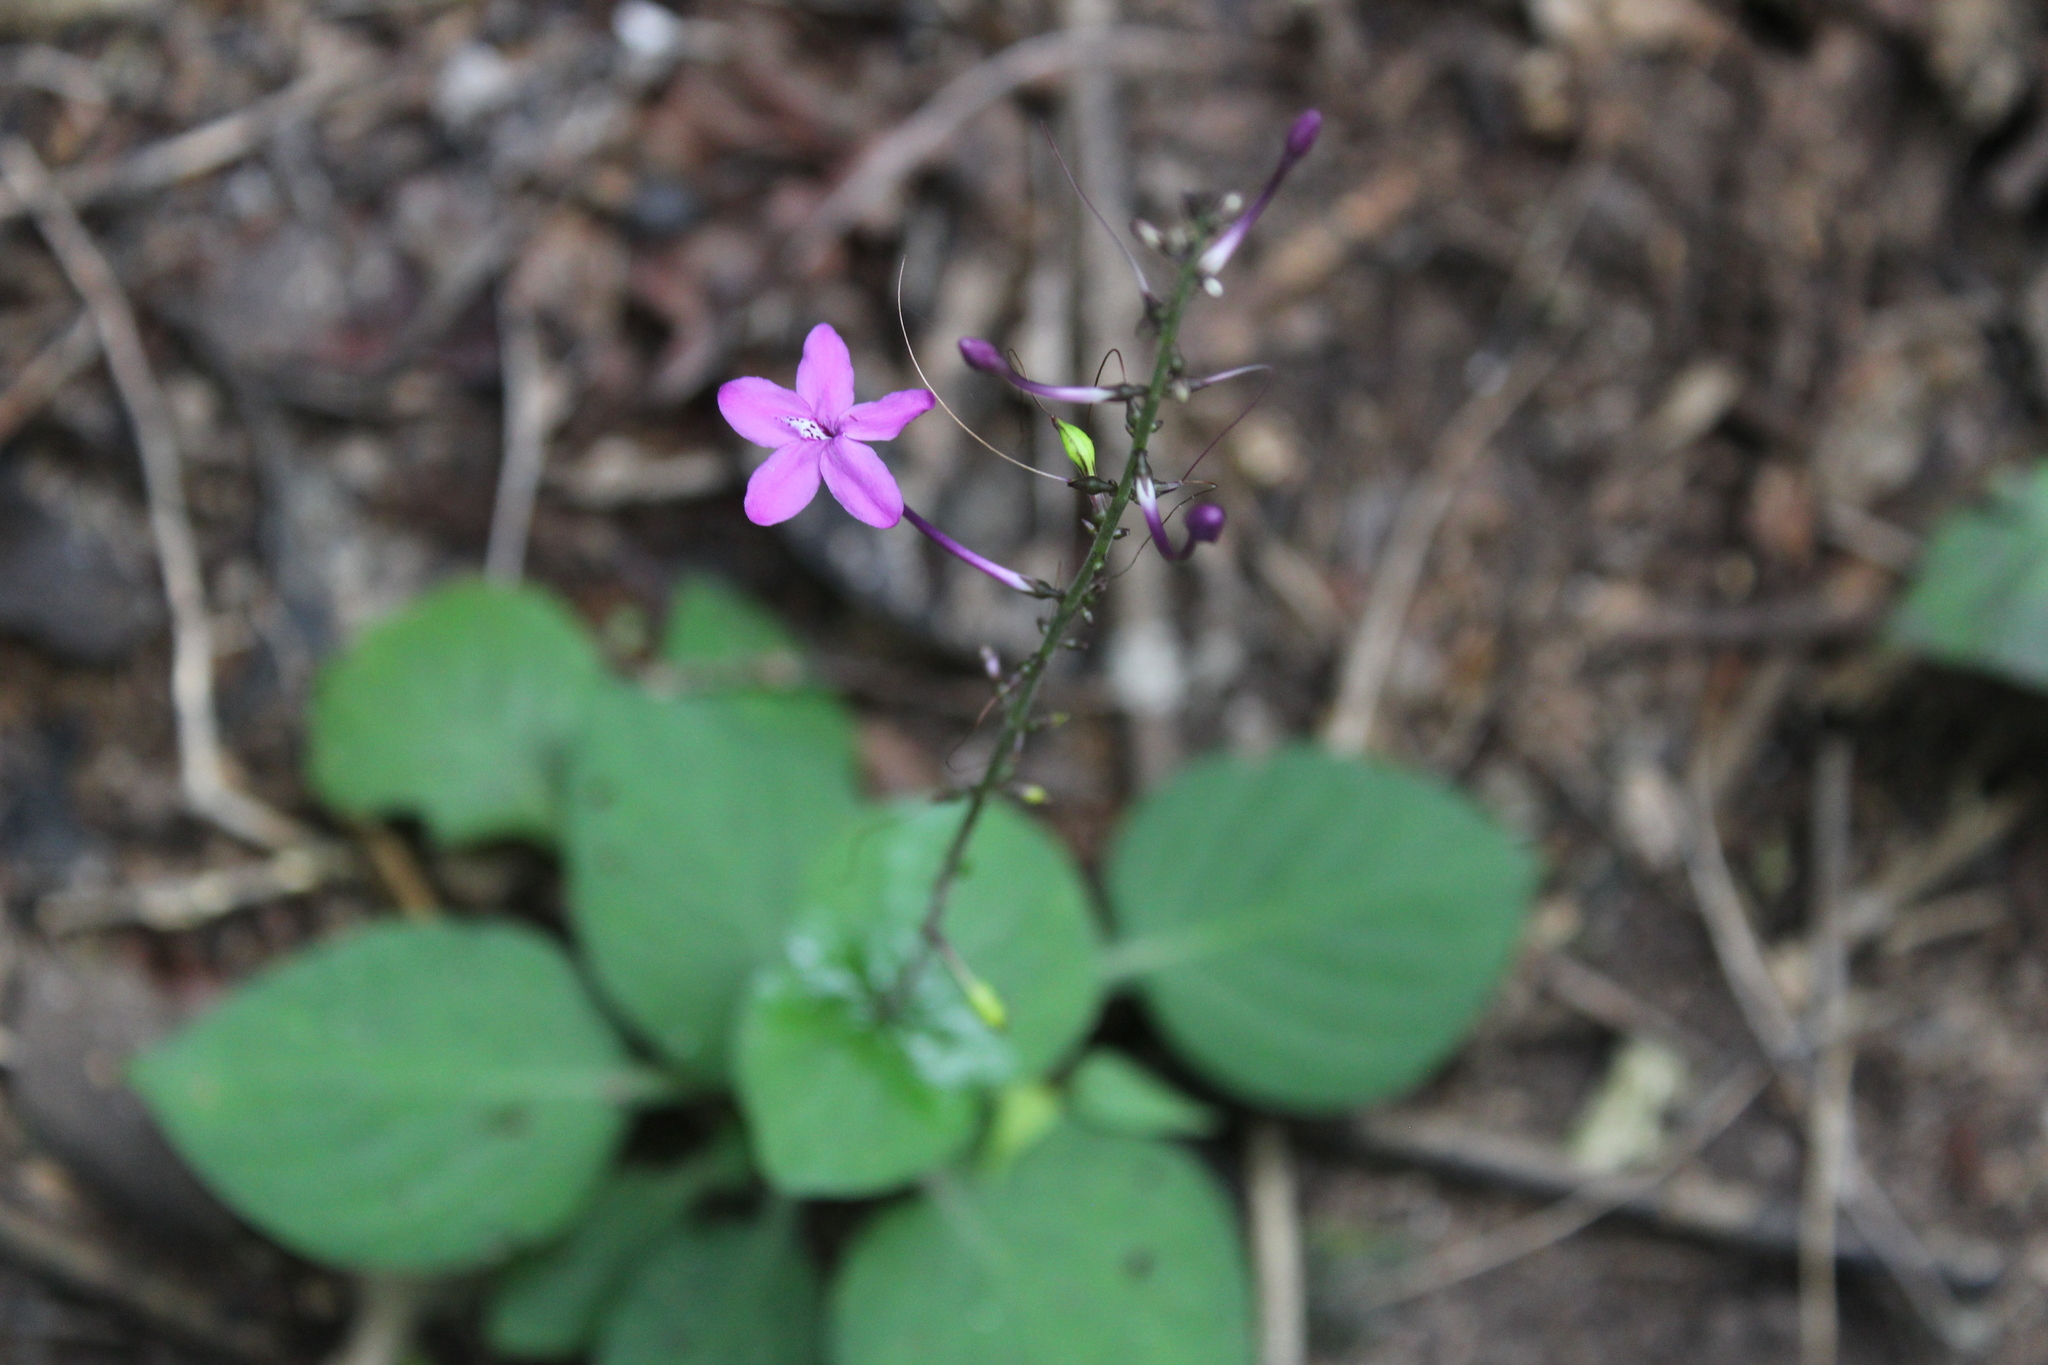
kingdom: Plantae
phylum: Tracheophyta
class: Magnoliopsida
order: Lamiales
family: Acanthaceae
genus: Pseuderanthemum
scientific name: Pseuderanthemum alatum
